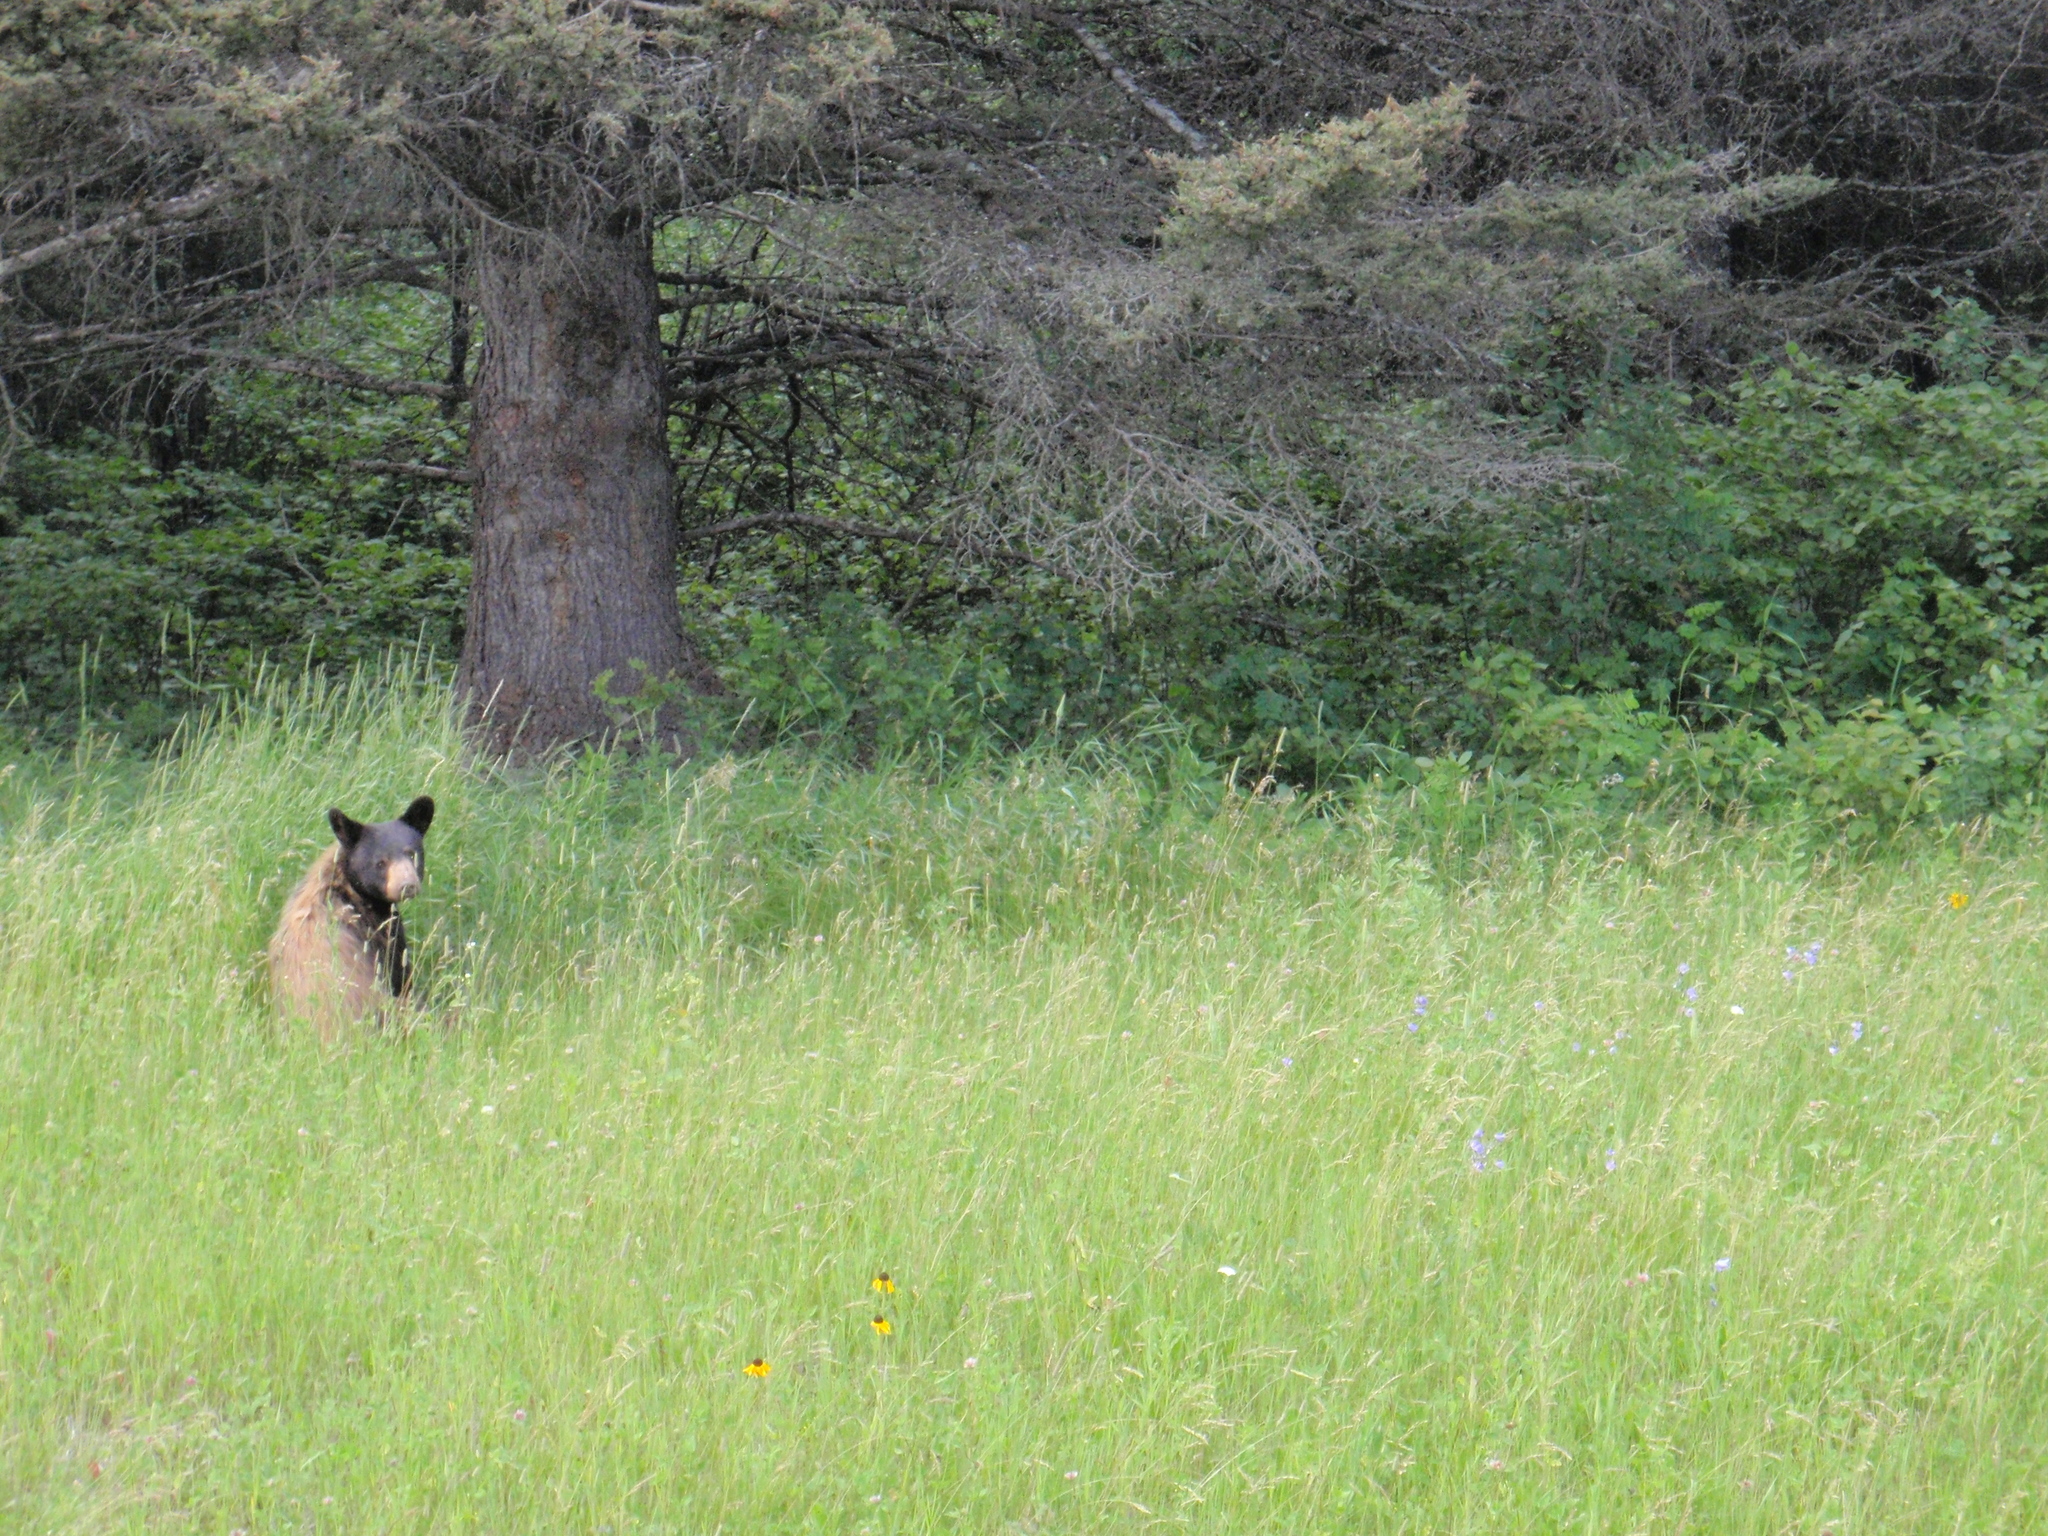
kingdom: Animalia
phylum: Chordata
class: Mammalia
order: Carnivora
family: Ursidae
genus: Ursus
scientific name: Ursus americanus
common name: American black bear
